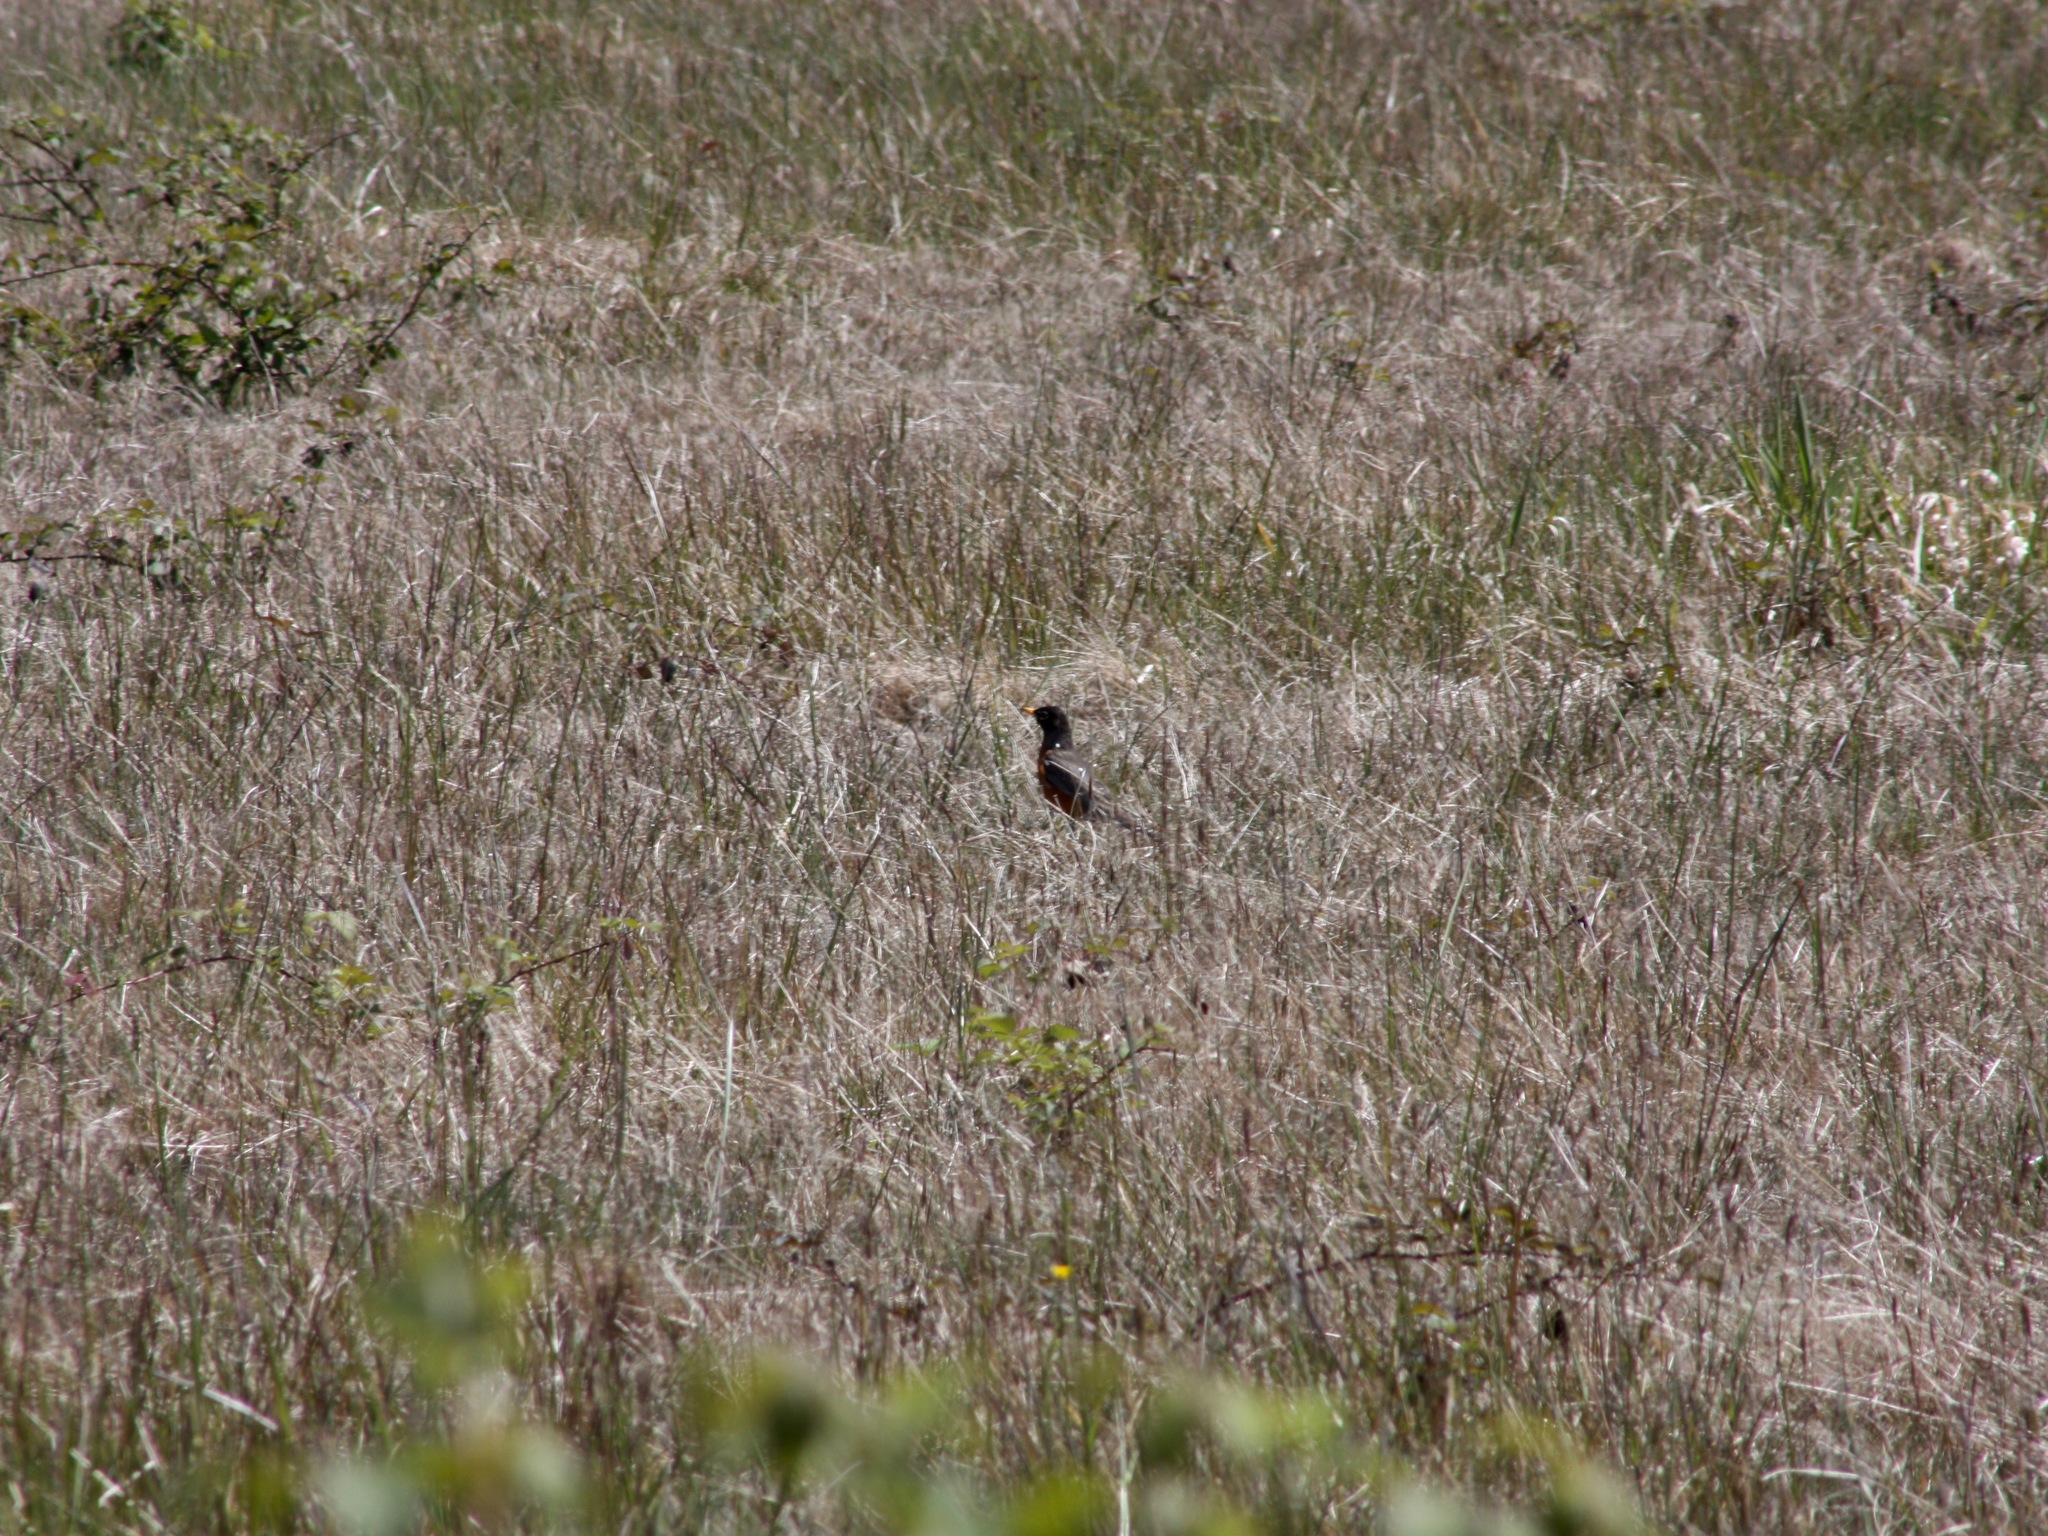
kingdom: Animalia
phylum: Chordata
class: Aves
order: Passeriformes
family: Turdidae
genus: Turdus
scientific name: Turdus migratorius
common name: American robin
